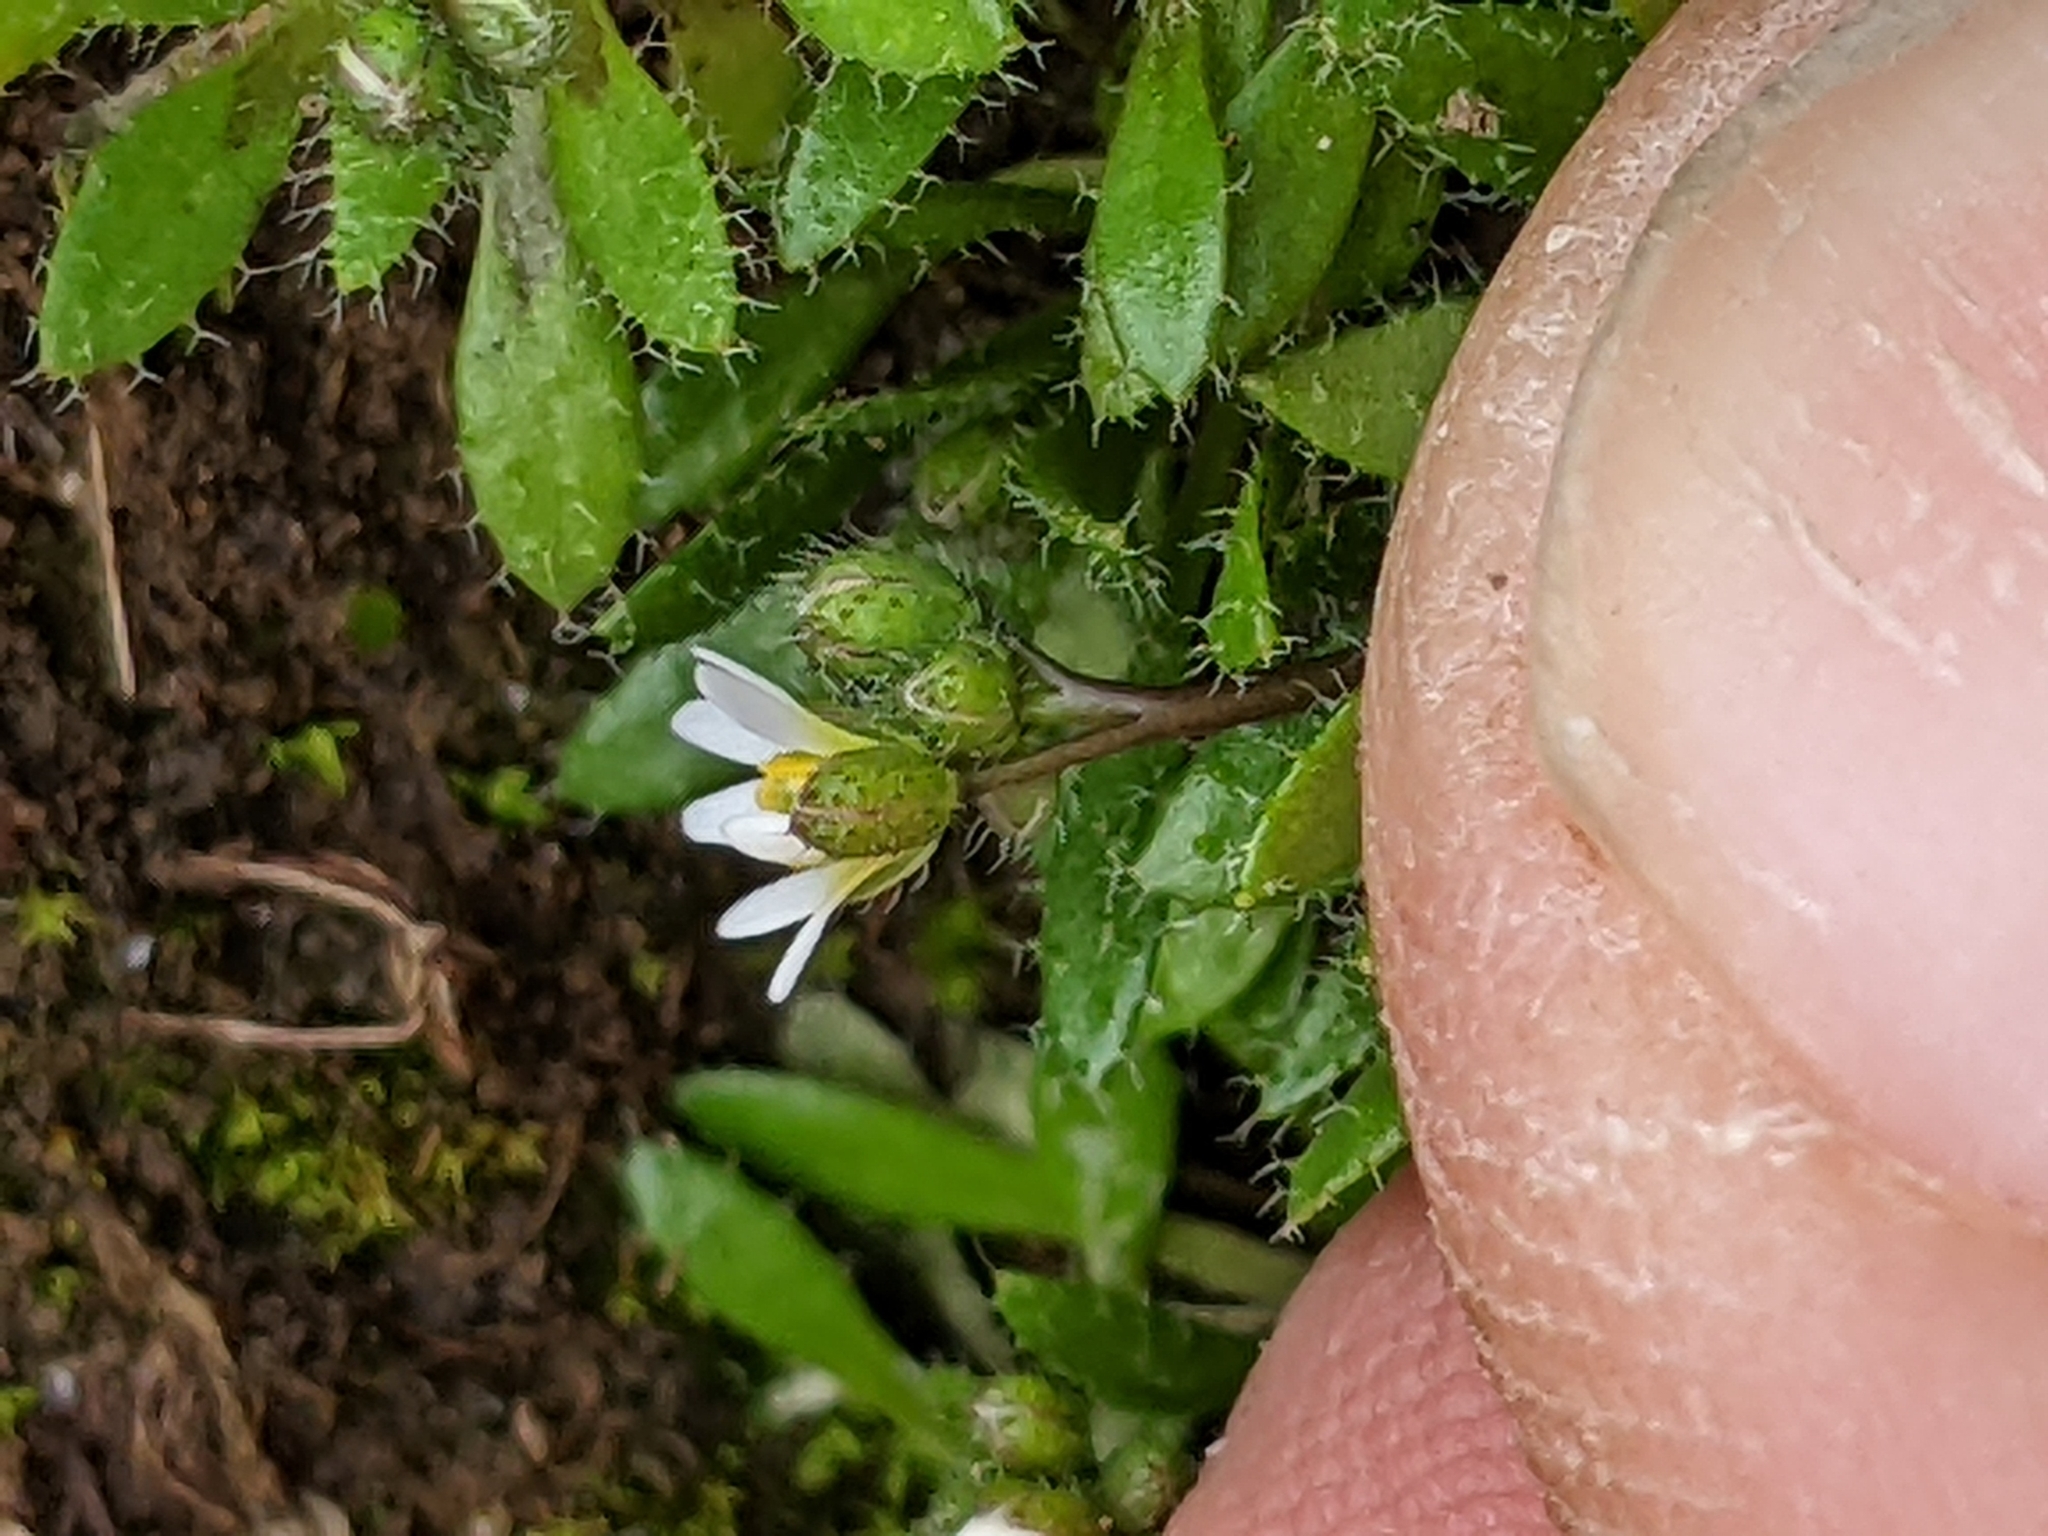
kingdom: Plantae
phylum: Tracheophyta
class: Magnoliopsida
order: Brassicales
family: Brassicaceae
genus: Draba
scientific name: Draba verna
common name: Spring draba
